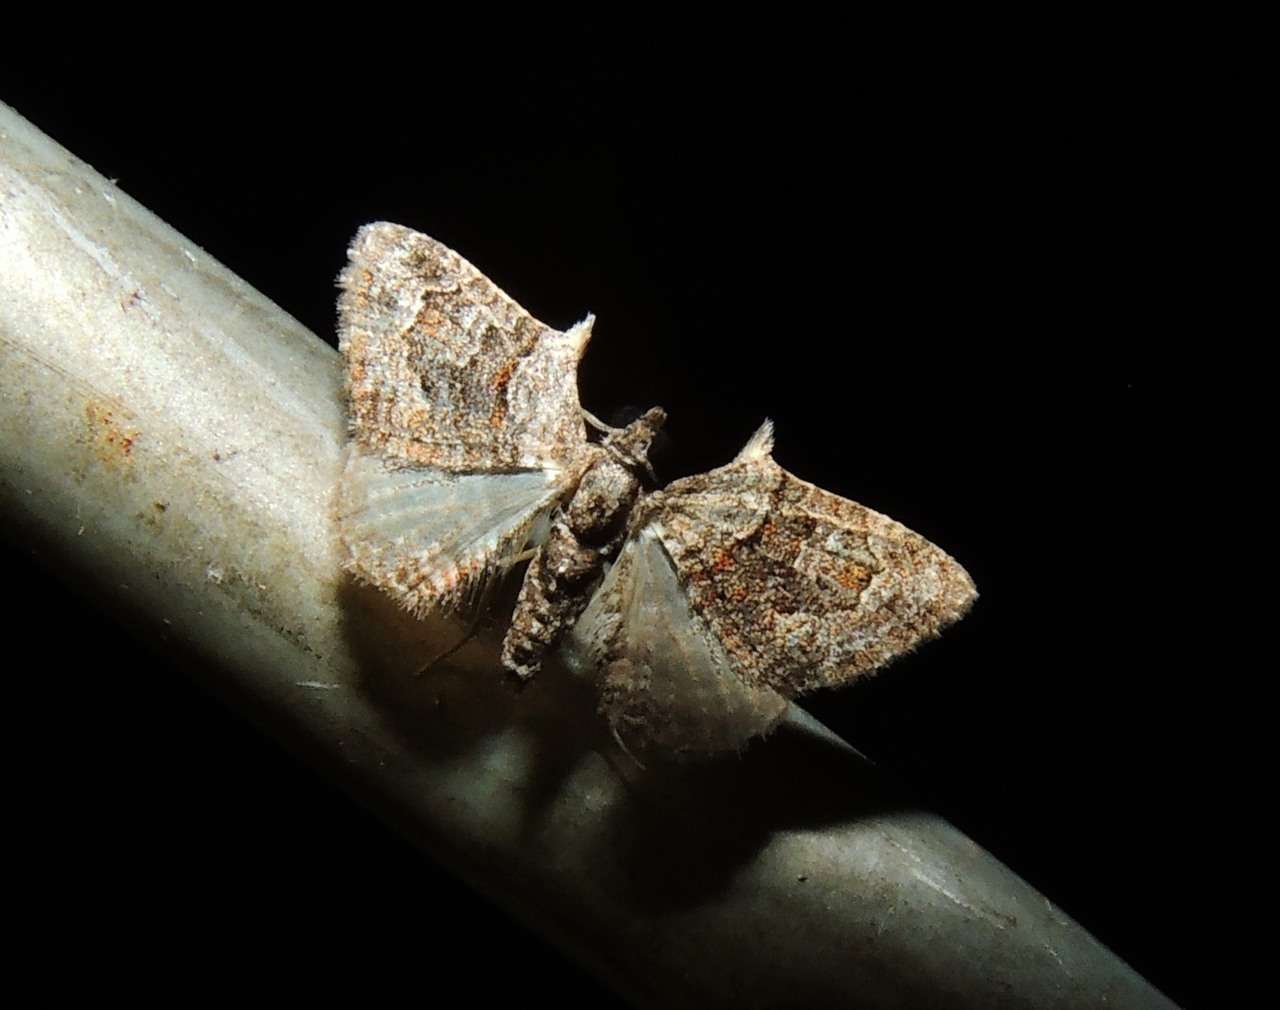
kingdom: Animalia
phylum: Arthropoda
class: Insecta
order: Lepidoptera
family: Geometridae
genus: Phrissogonus
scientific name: Phrissogonus laticostata
